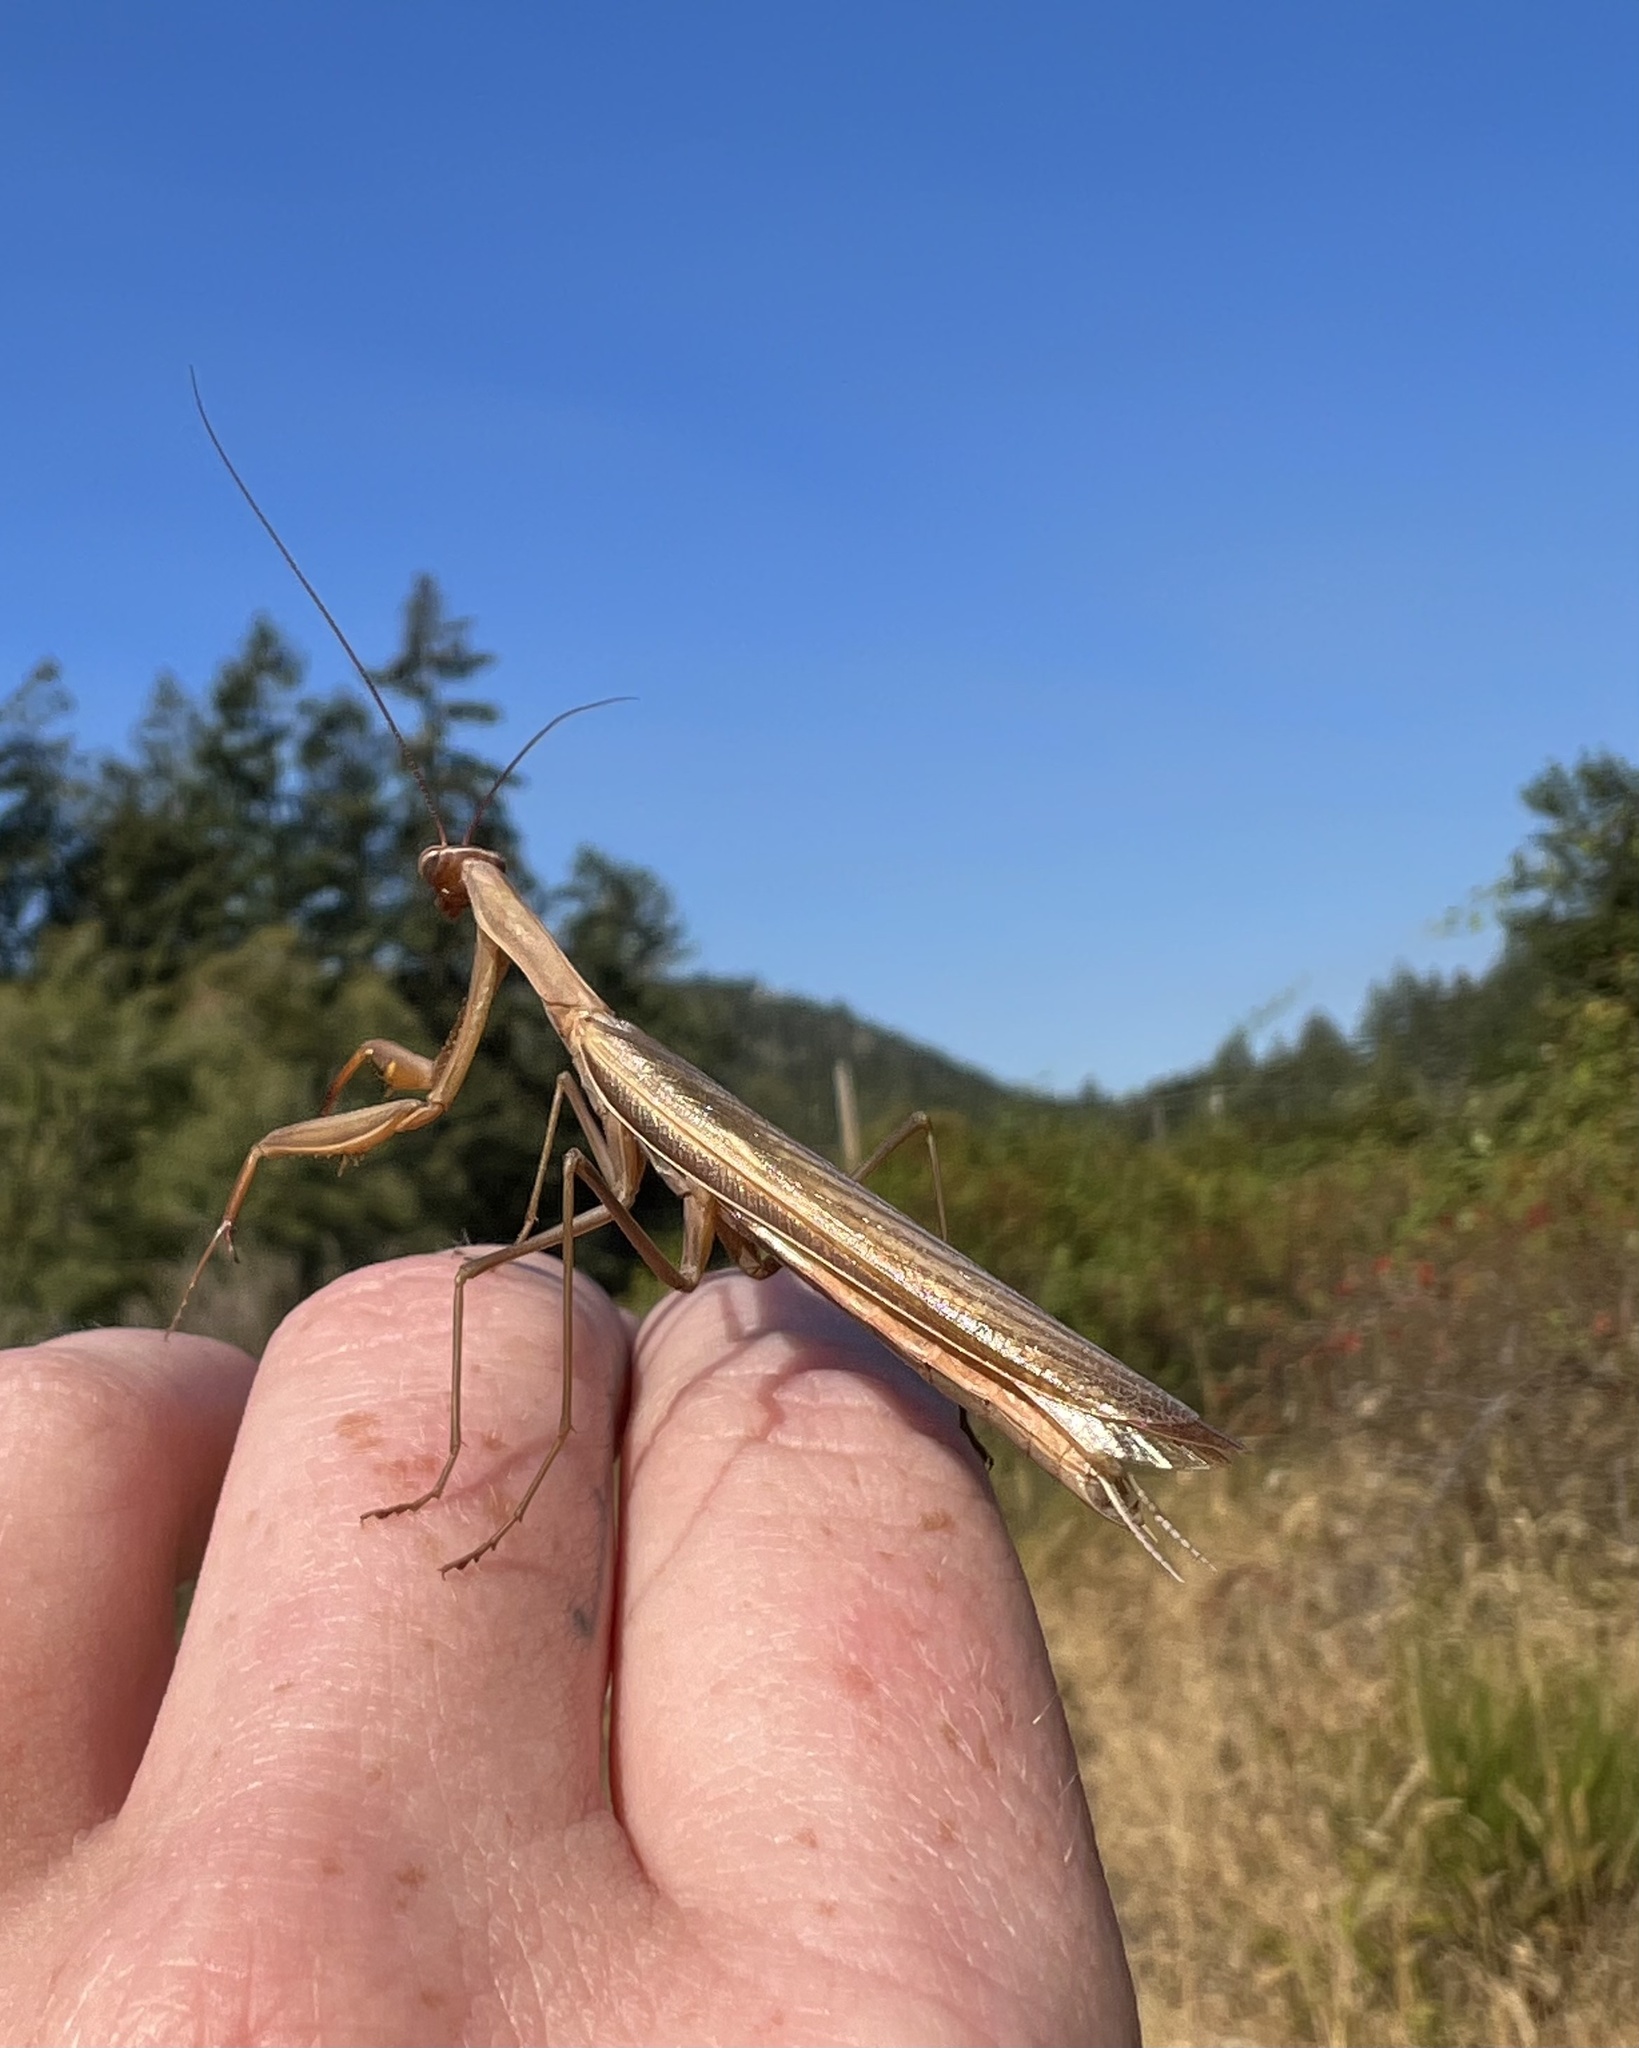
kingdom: Animalia
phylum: Arthropoda
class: Insecta
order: Mantodea
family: Mantidae
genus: Mantis
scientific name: Mantis religiosa
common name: Praying mantis
